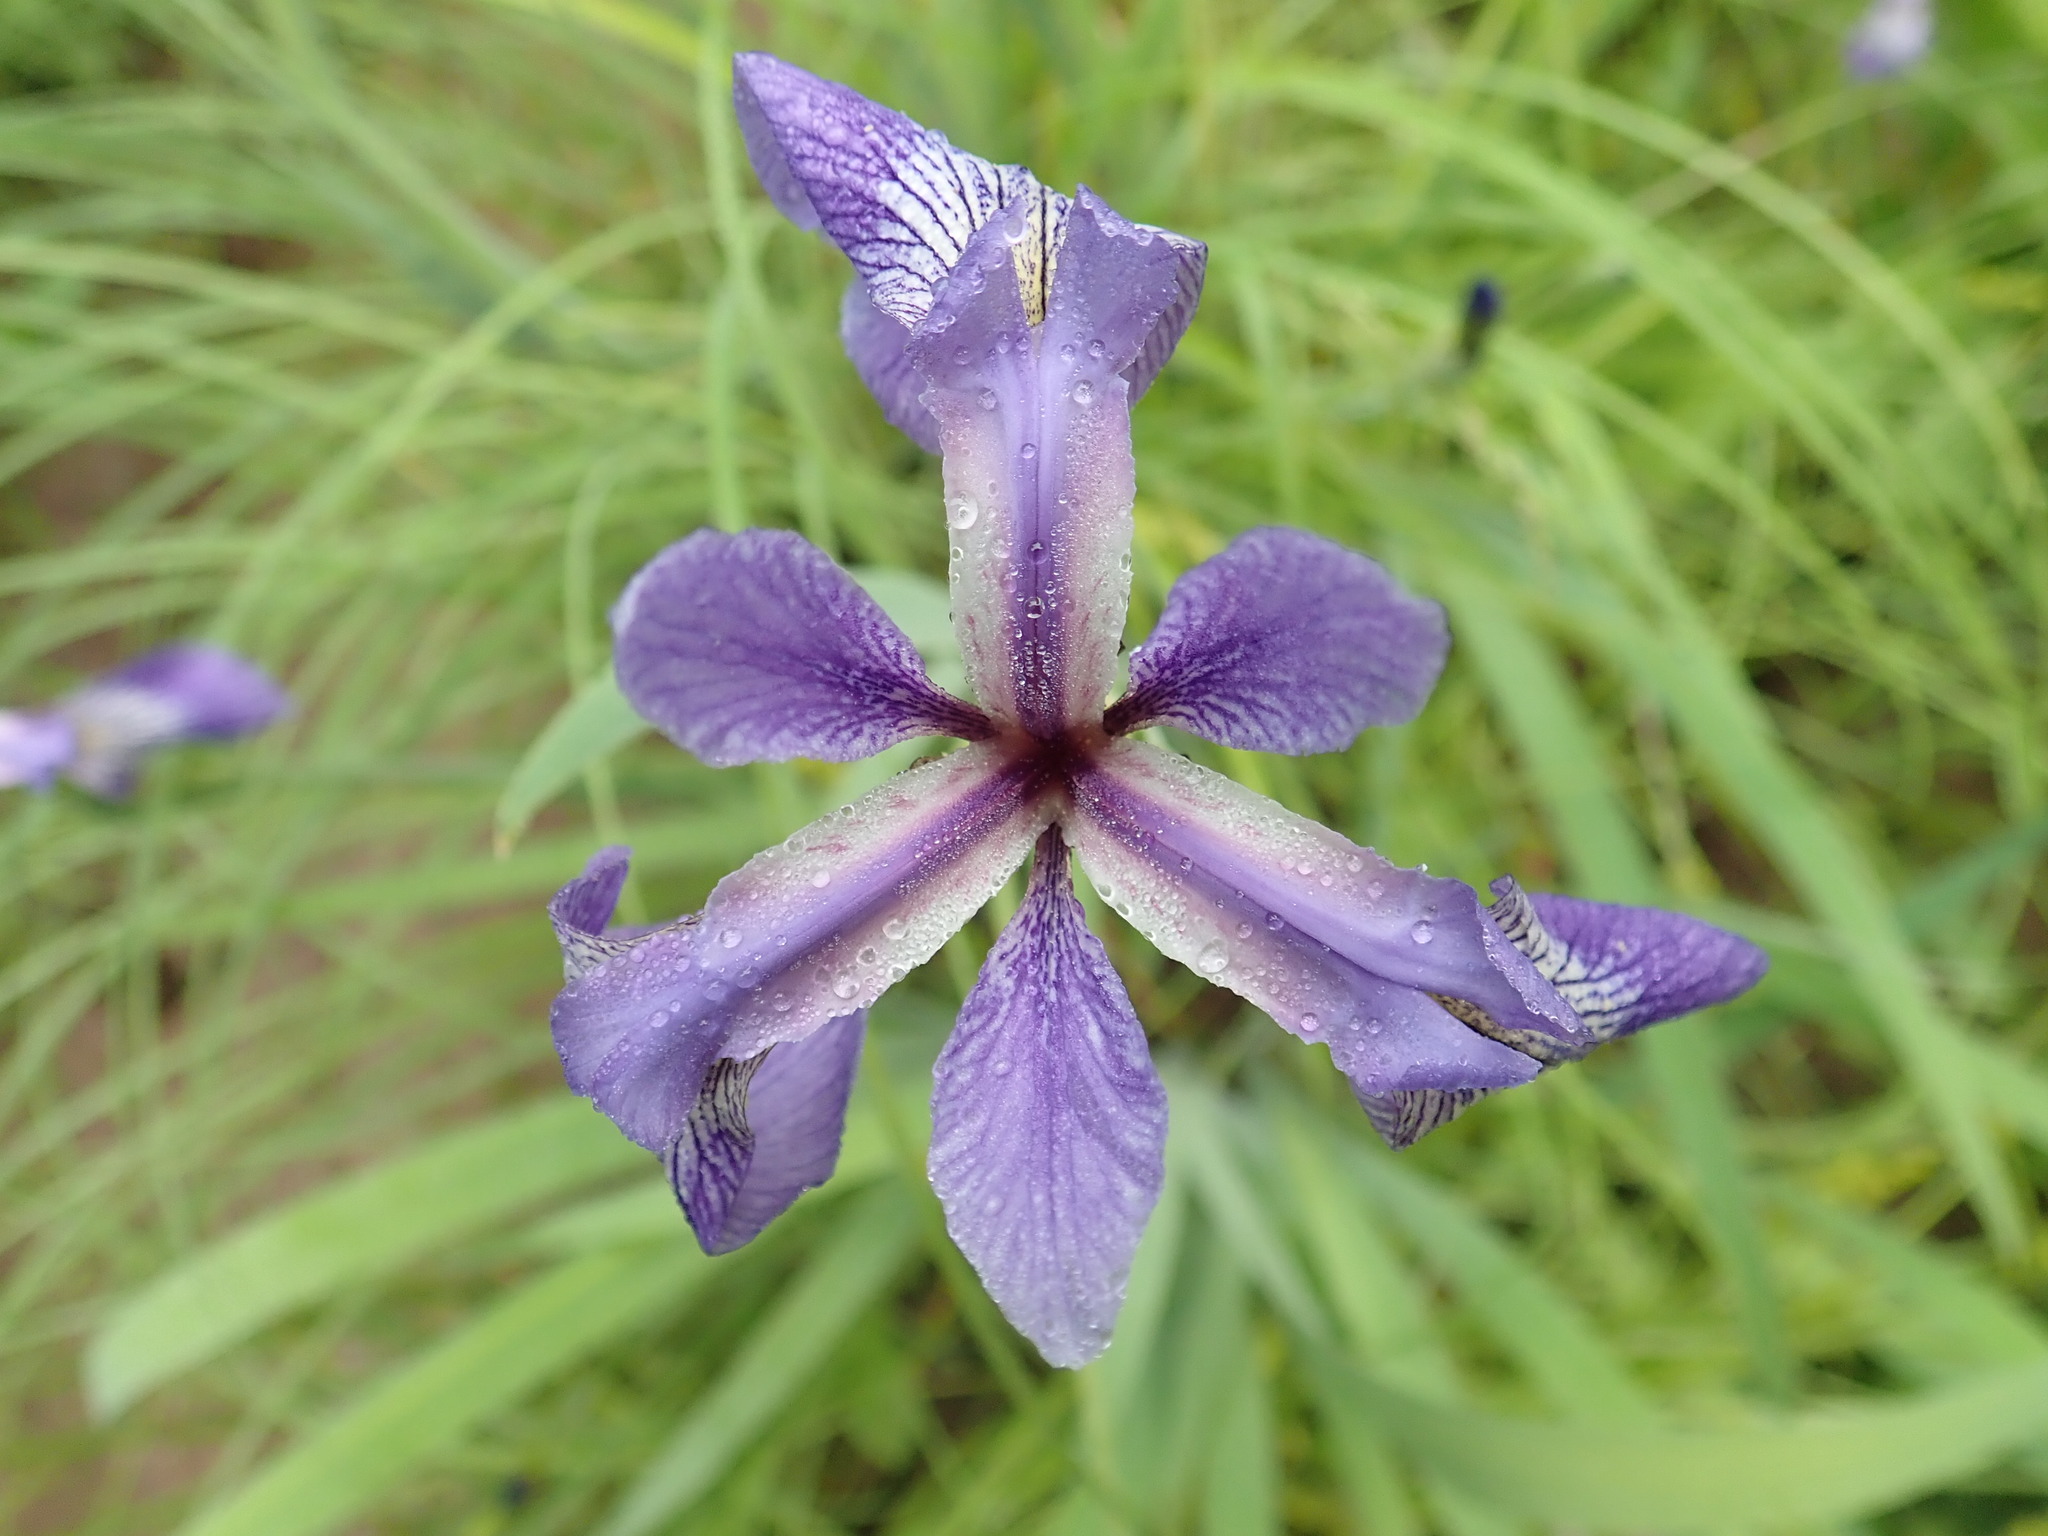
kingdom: Plantae
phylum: Tracheophyta
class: Liliopsida
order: Asparagales
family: Iridaceae
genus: Iris
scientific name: Iris versicolor
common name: Purple iris
